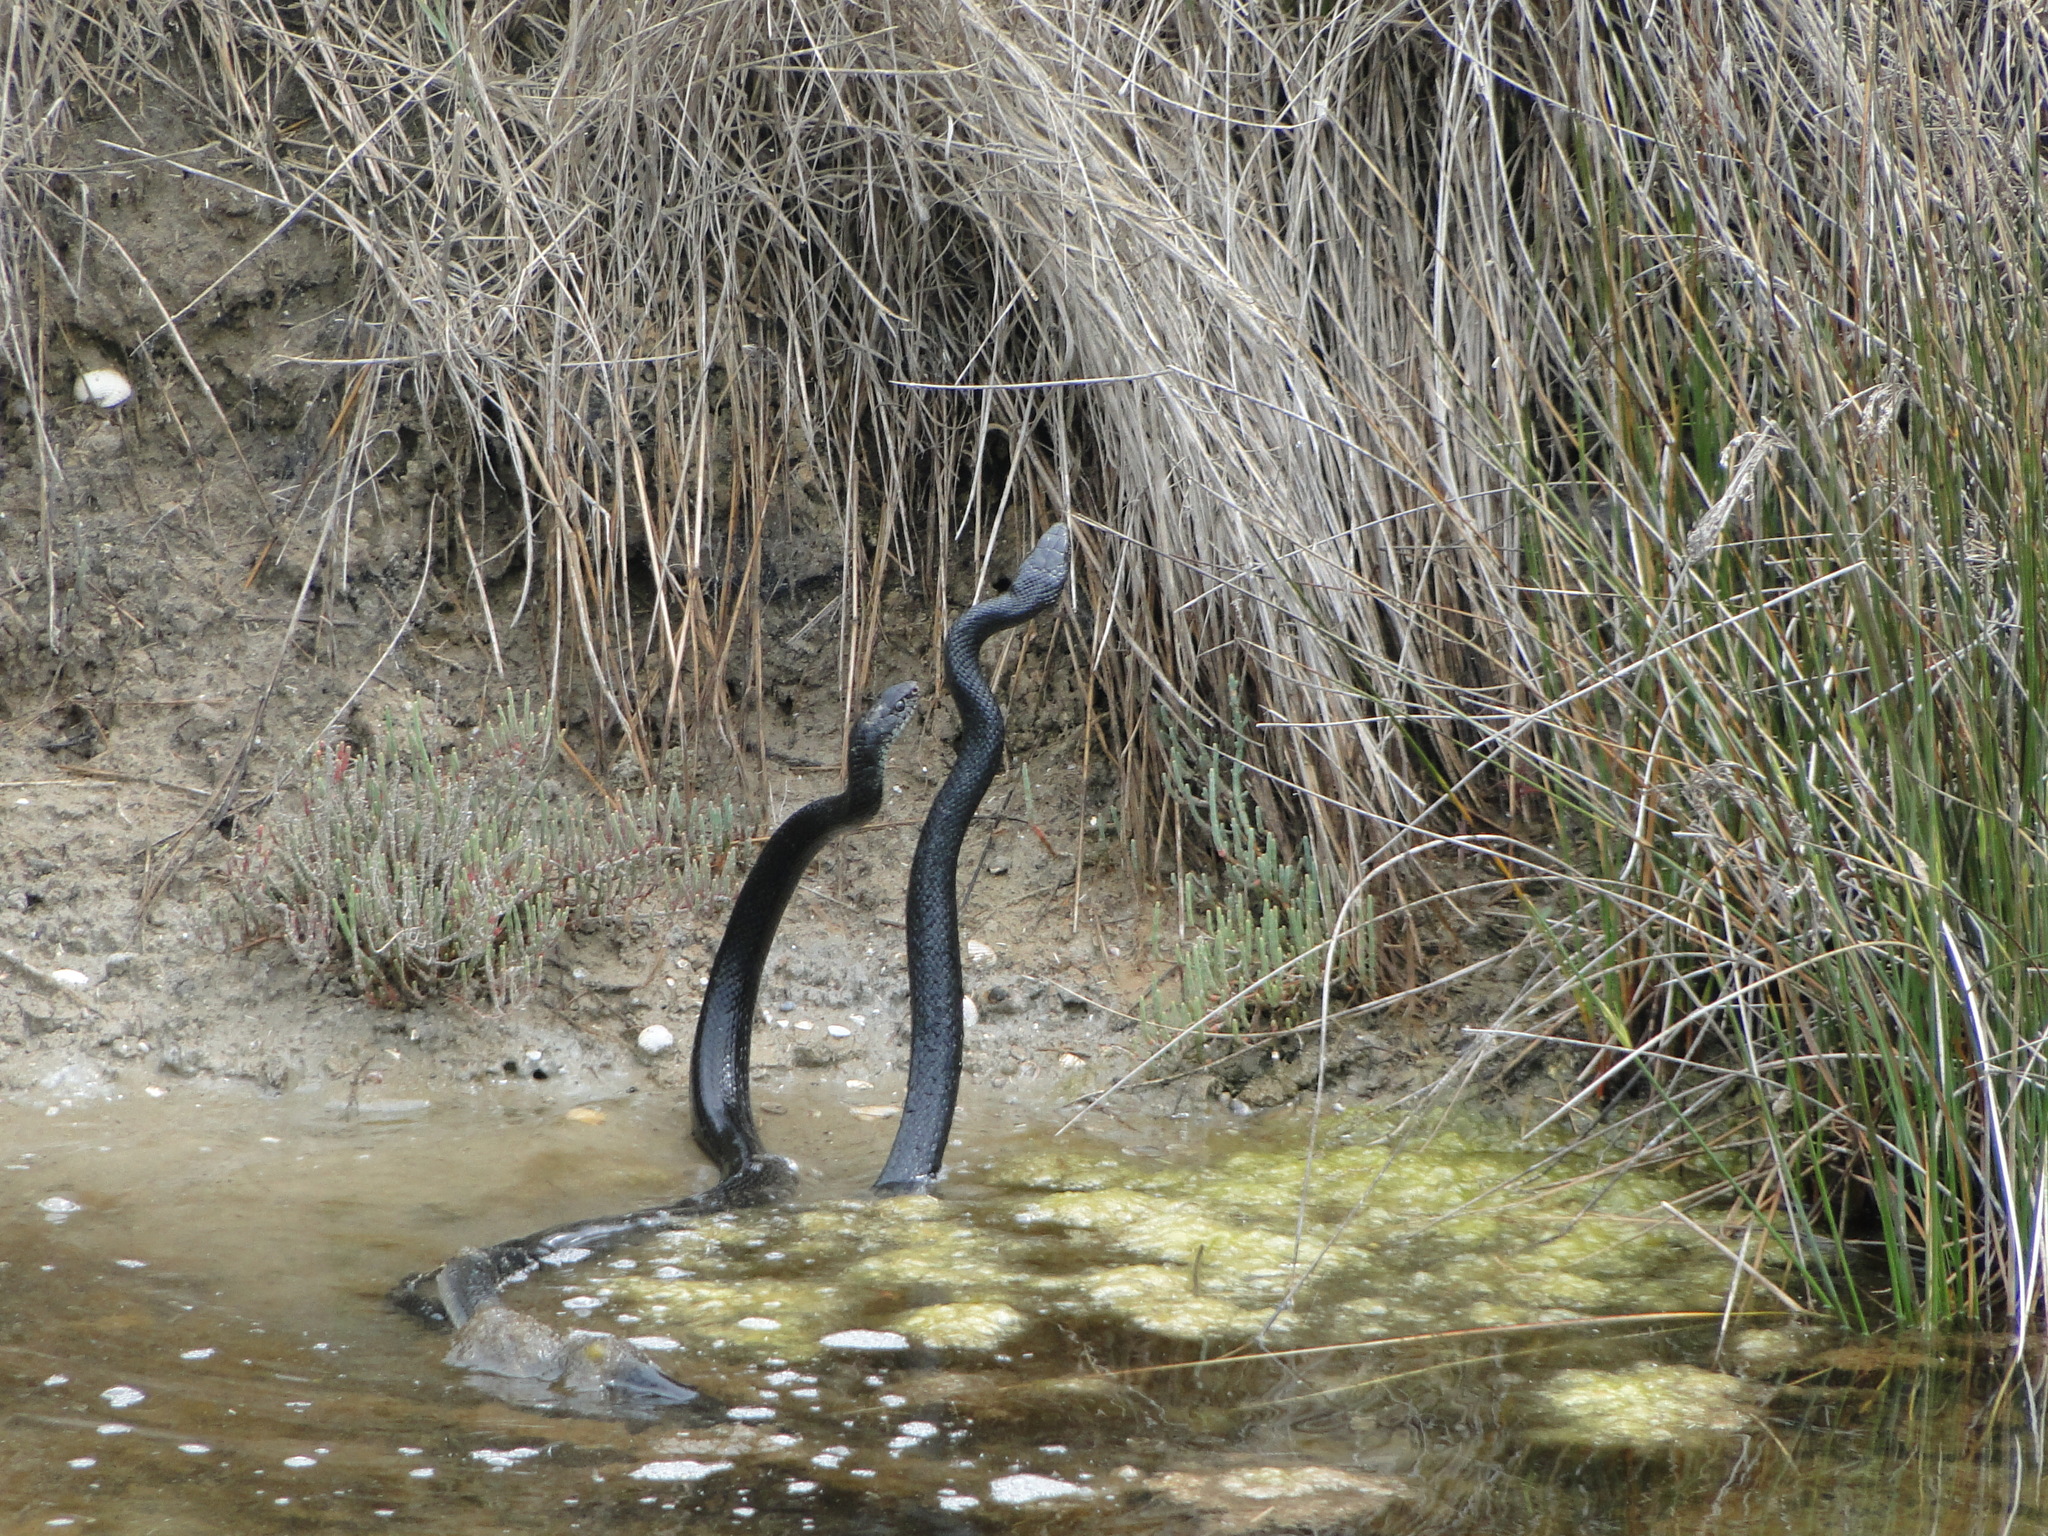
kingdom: Animalia
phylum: Chordata
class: Squamata
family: Colubridae
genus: Hierophis
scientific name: Hierophis viridiflavus
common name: Green whip snake
